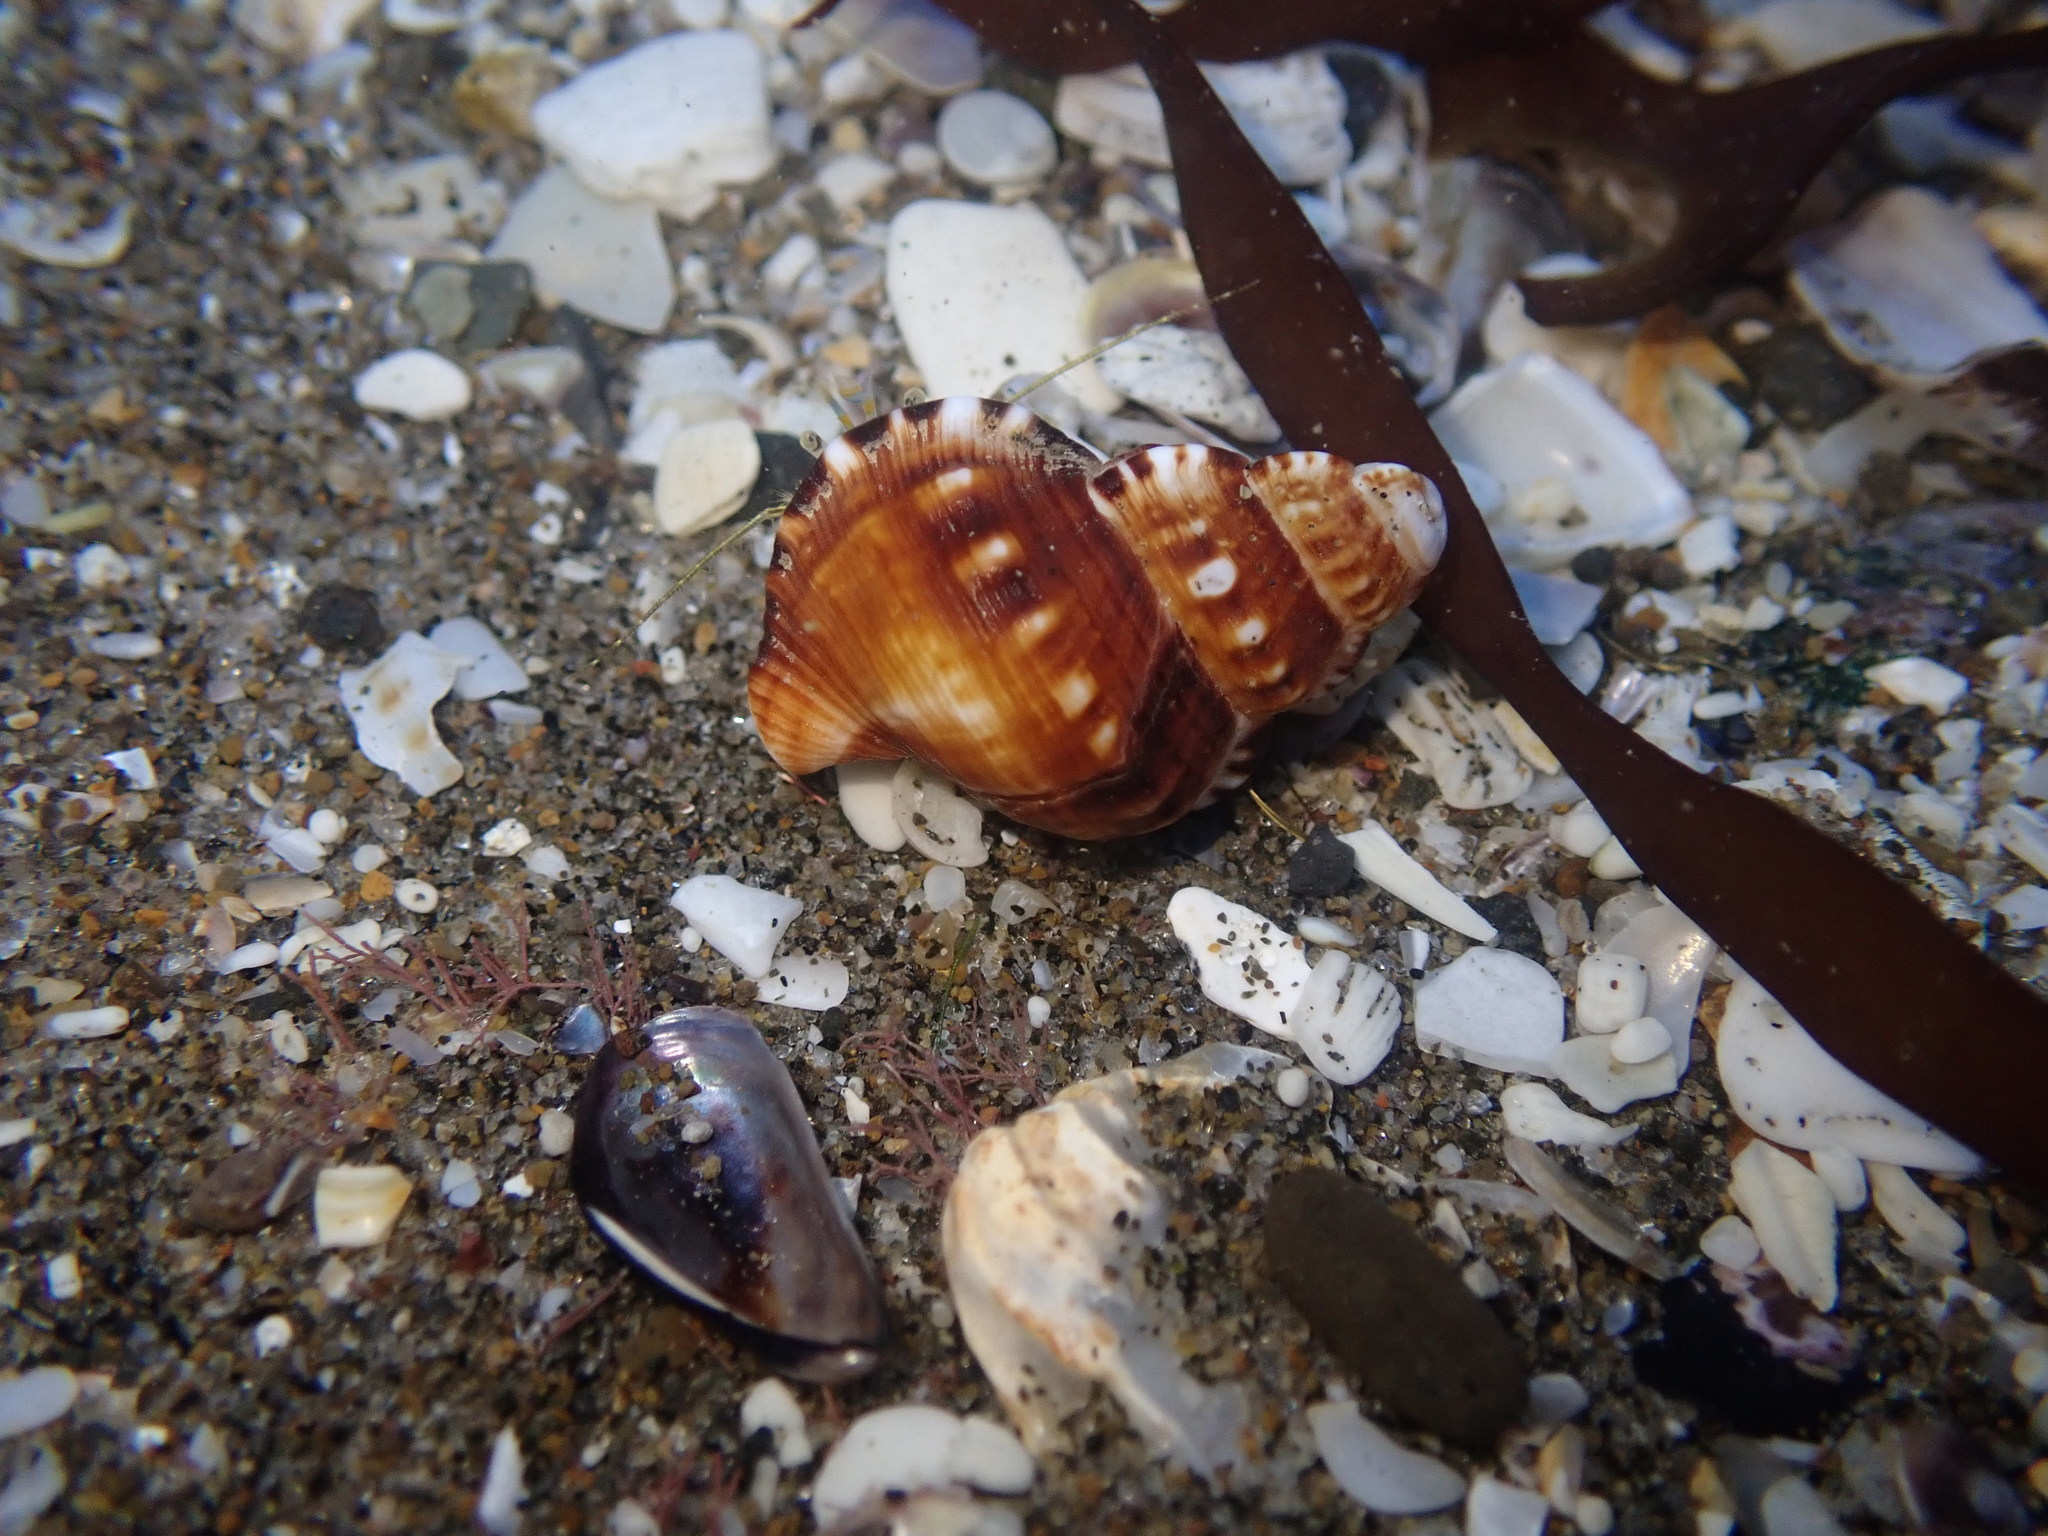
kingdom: Animalia
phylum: Mollusca
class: Gastropoda
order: Littorinimorpha
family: Ranellidae
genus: Ranella
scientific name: Ranella australasia
